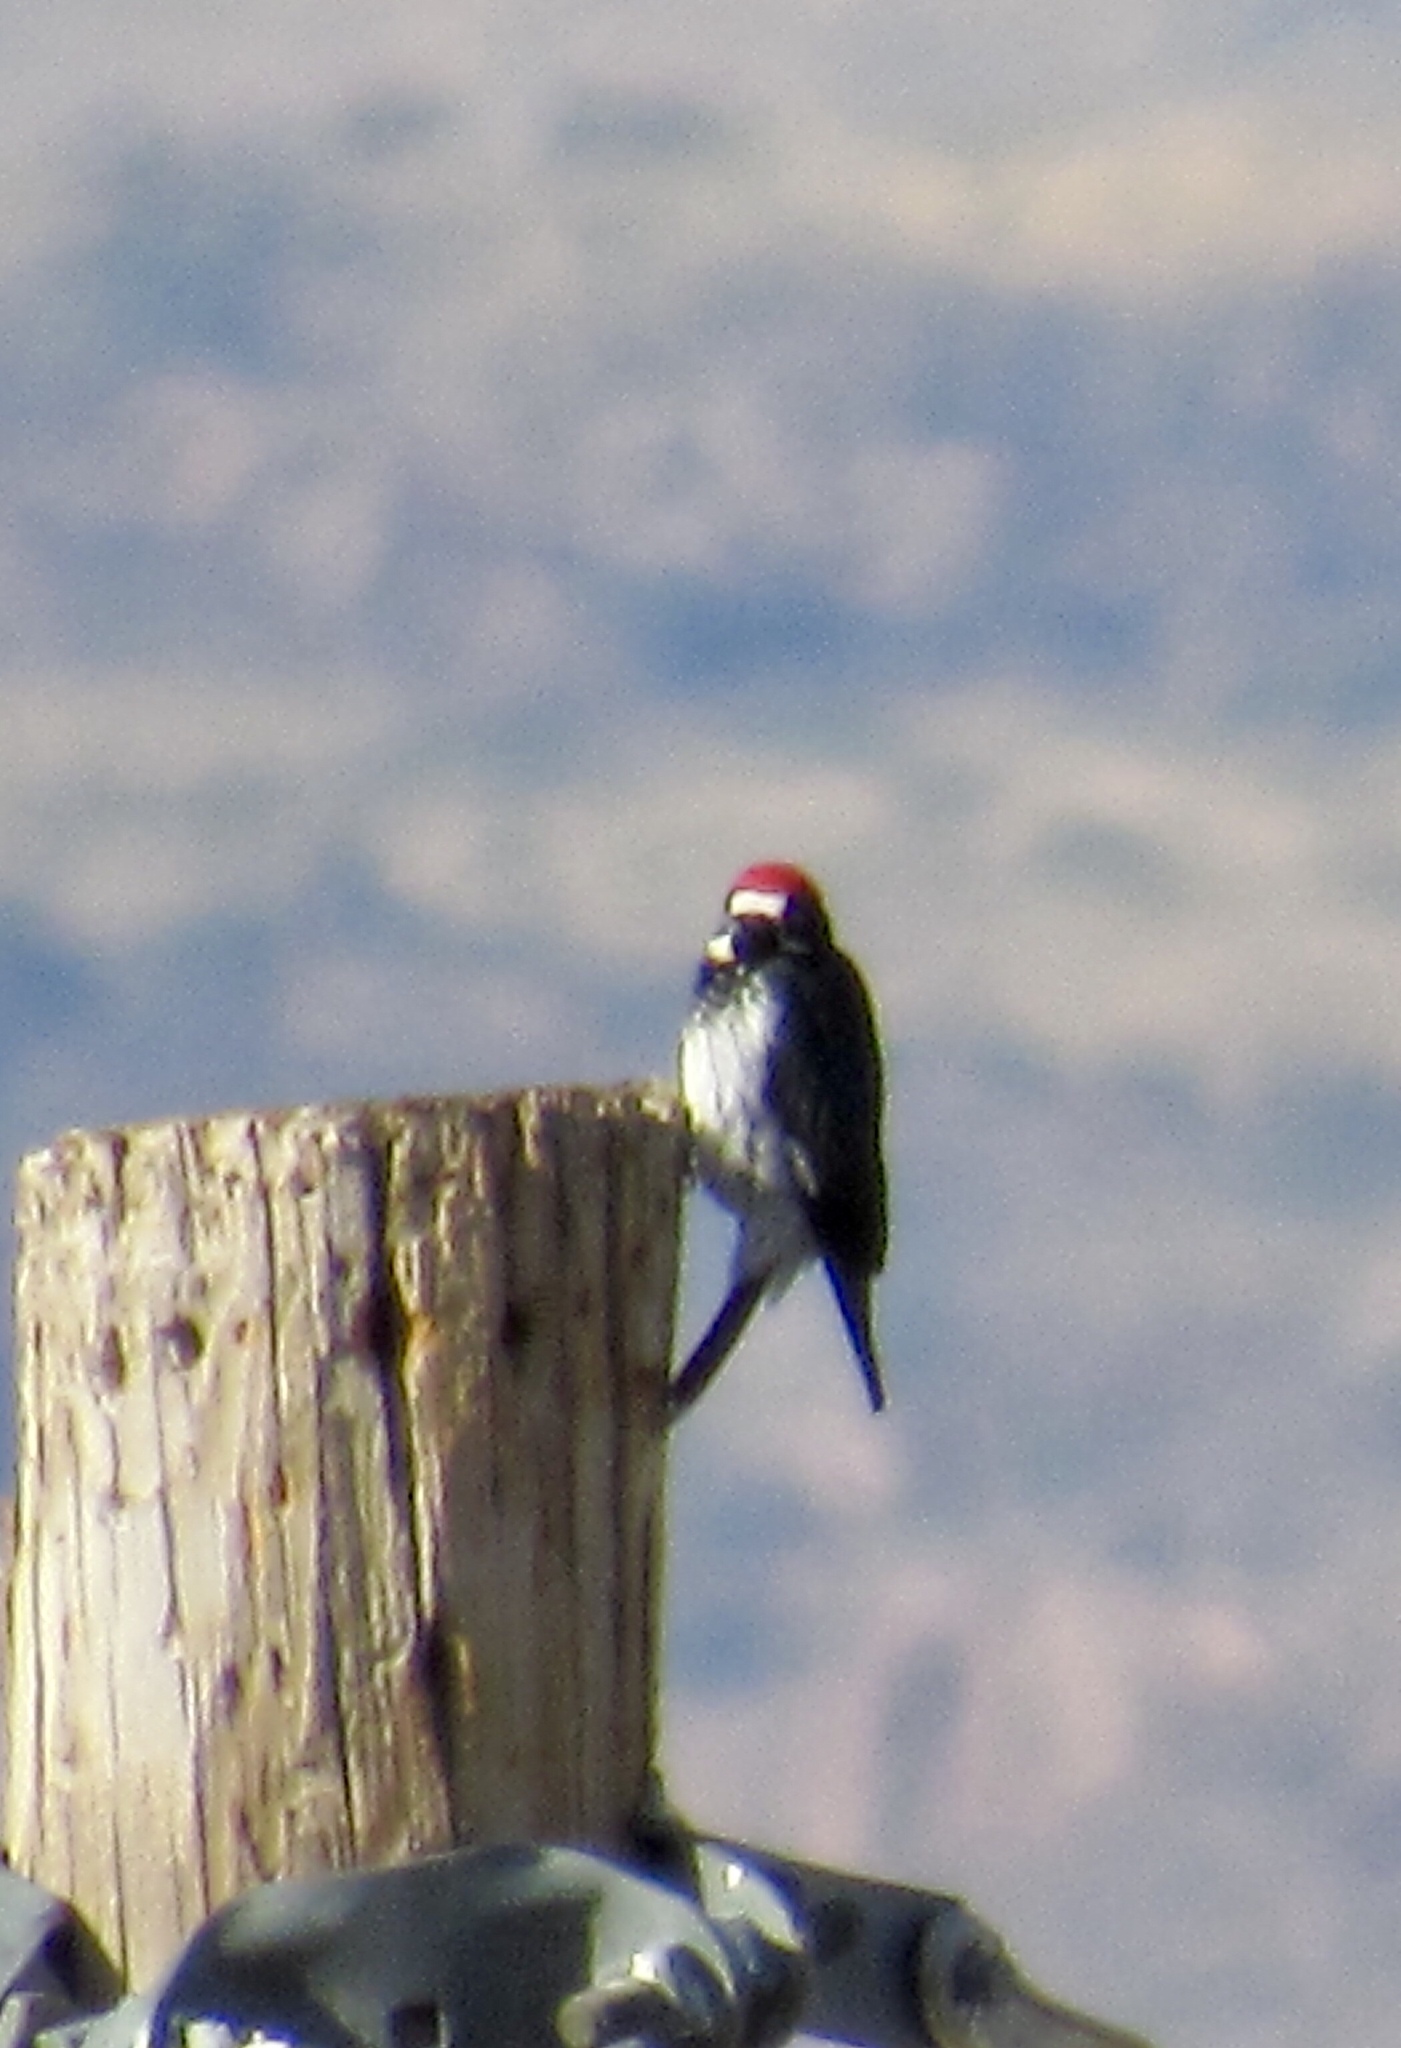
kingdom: Animalia
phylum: Chordata
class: Aves
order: Piciformes
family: Picidae
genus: Melanerpes
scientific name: Melanerpes formicivorus
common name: Acorn woodpecker
